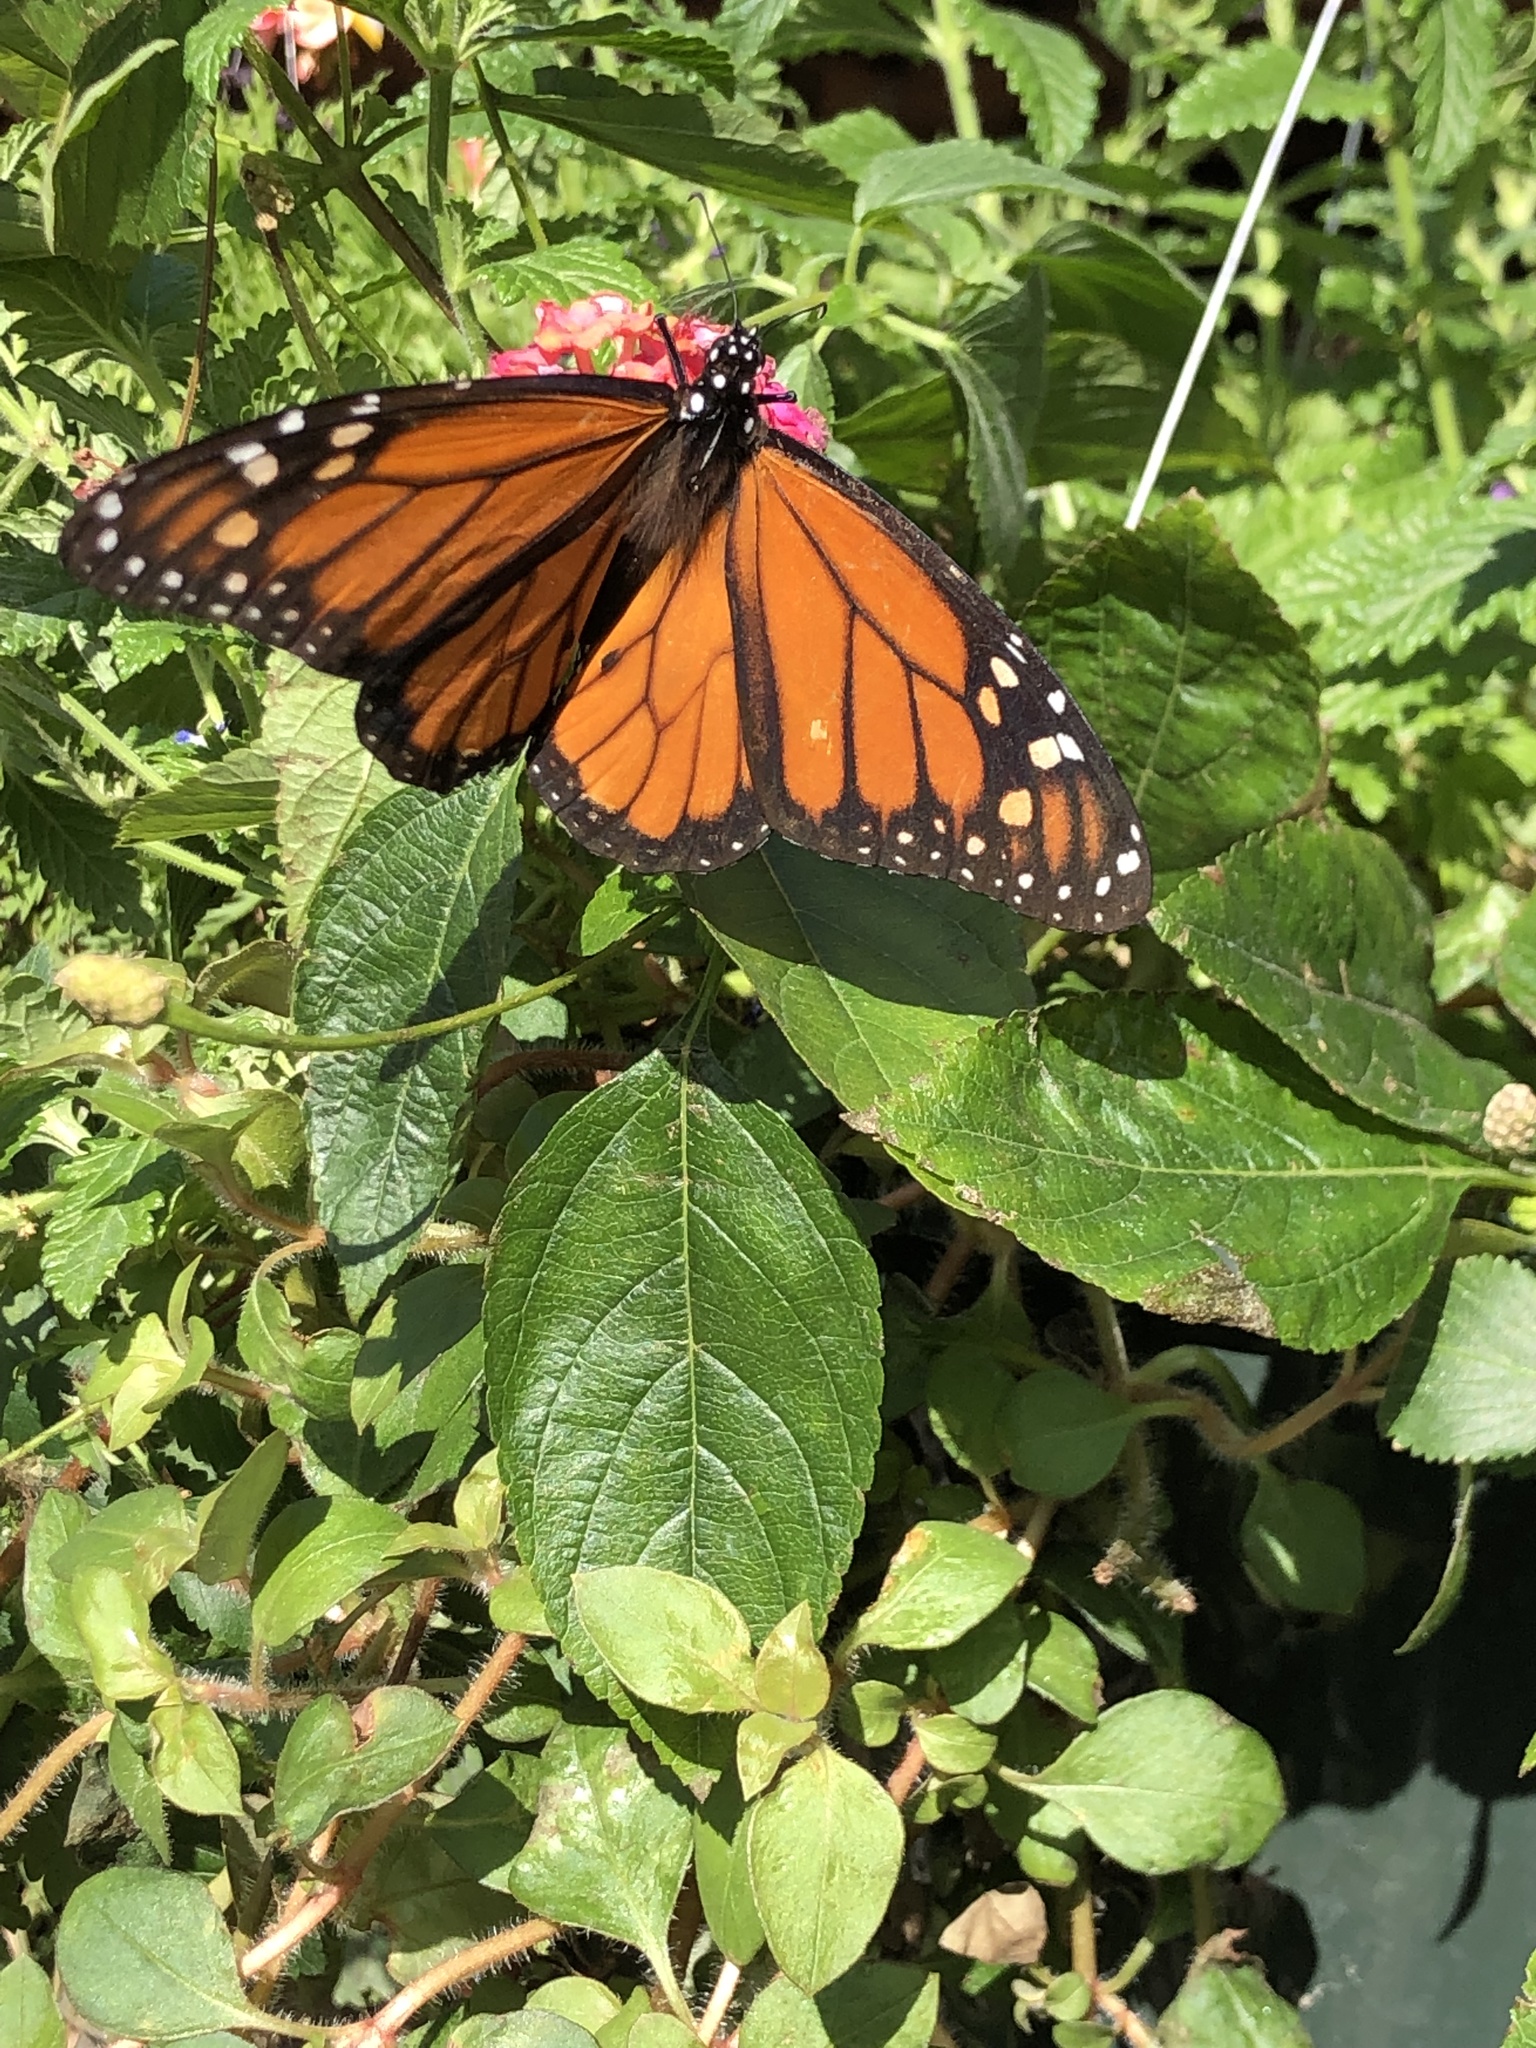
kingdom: Animalia
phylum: Arthropoda
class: Insecta
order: Lepidoptera
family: Nymphalidae
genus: Danaus
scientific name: Danaus plexippus
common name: Monarch
